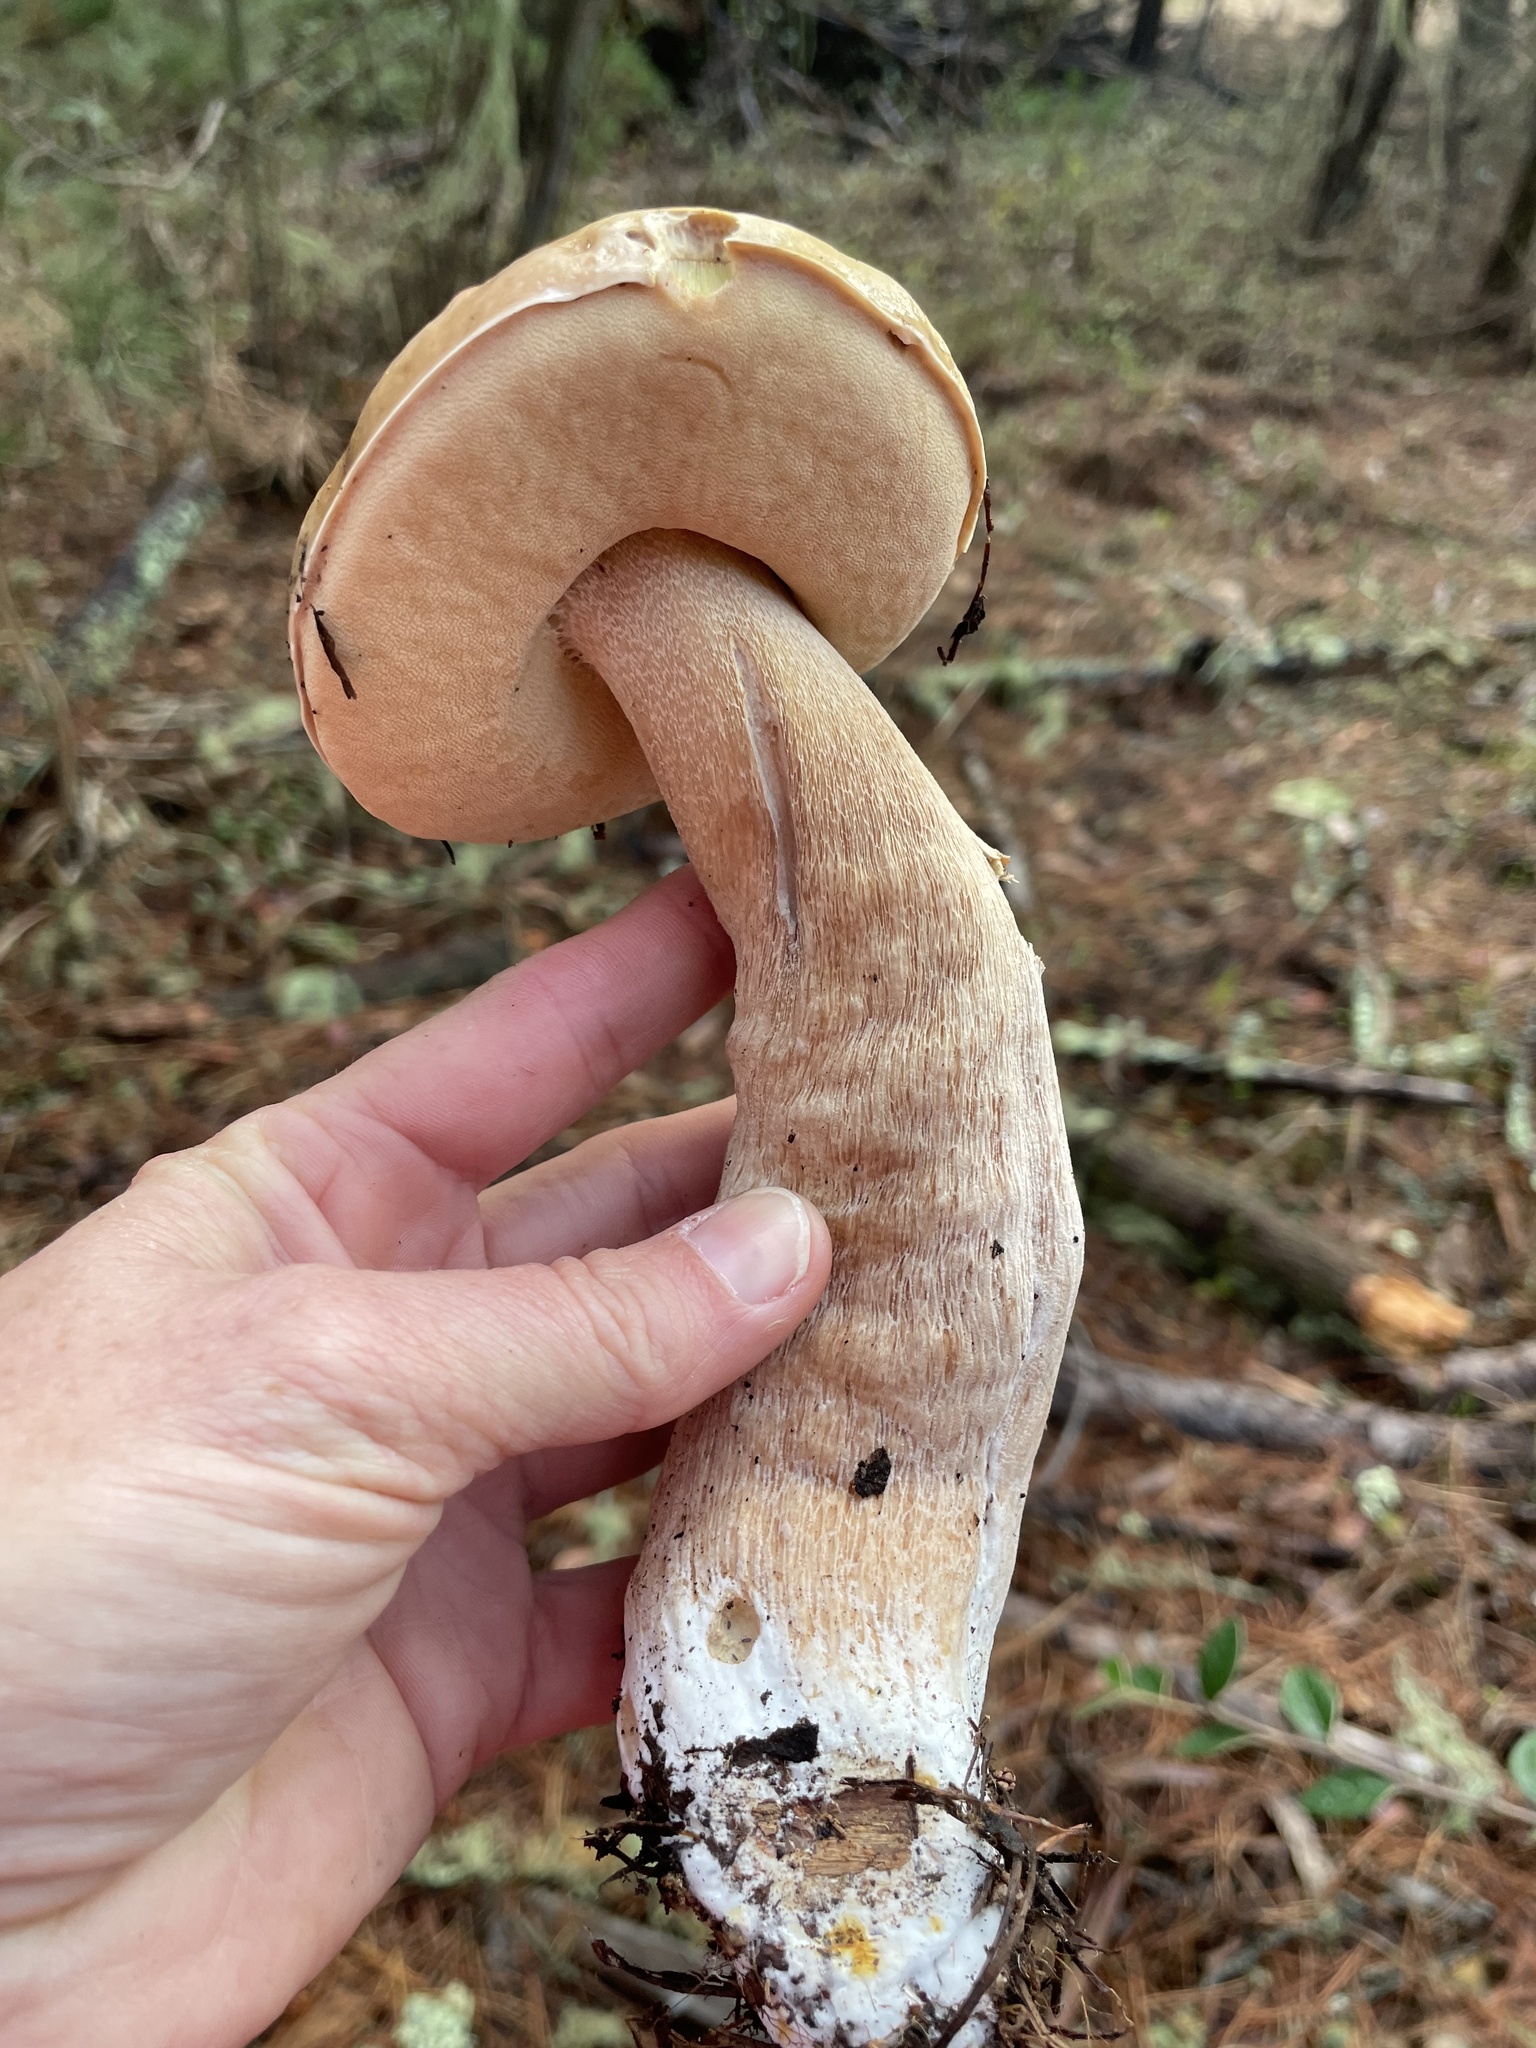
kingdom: Fungi
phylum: Basidiomycota
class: Agaricomycetes
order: Boletales
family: Boletaceae
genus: Boletus
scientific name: Boletus edulis
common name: Cep
